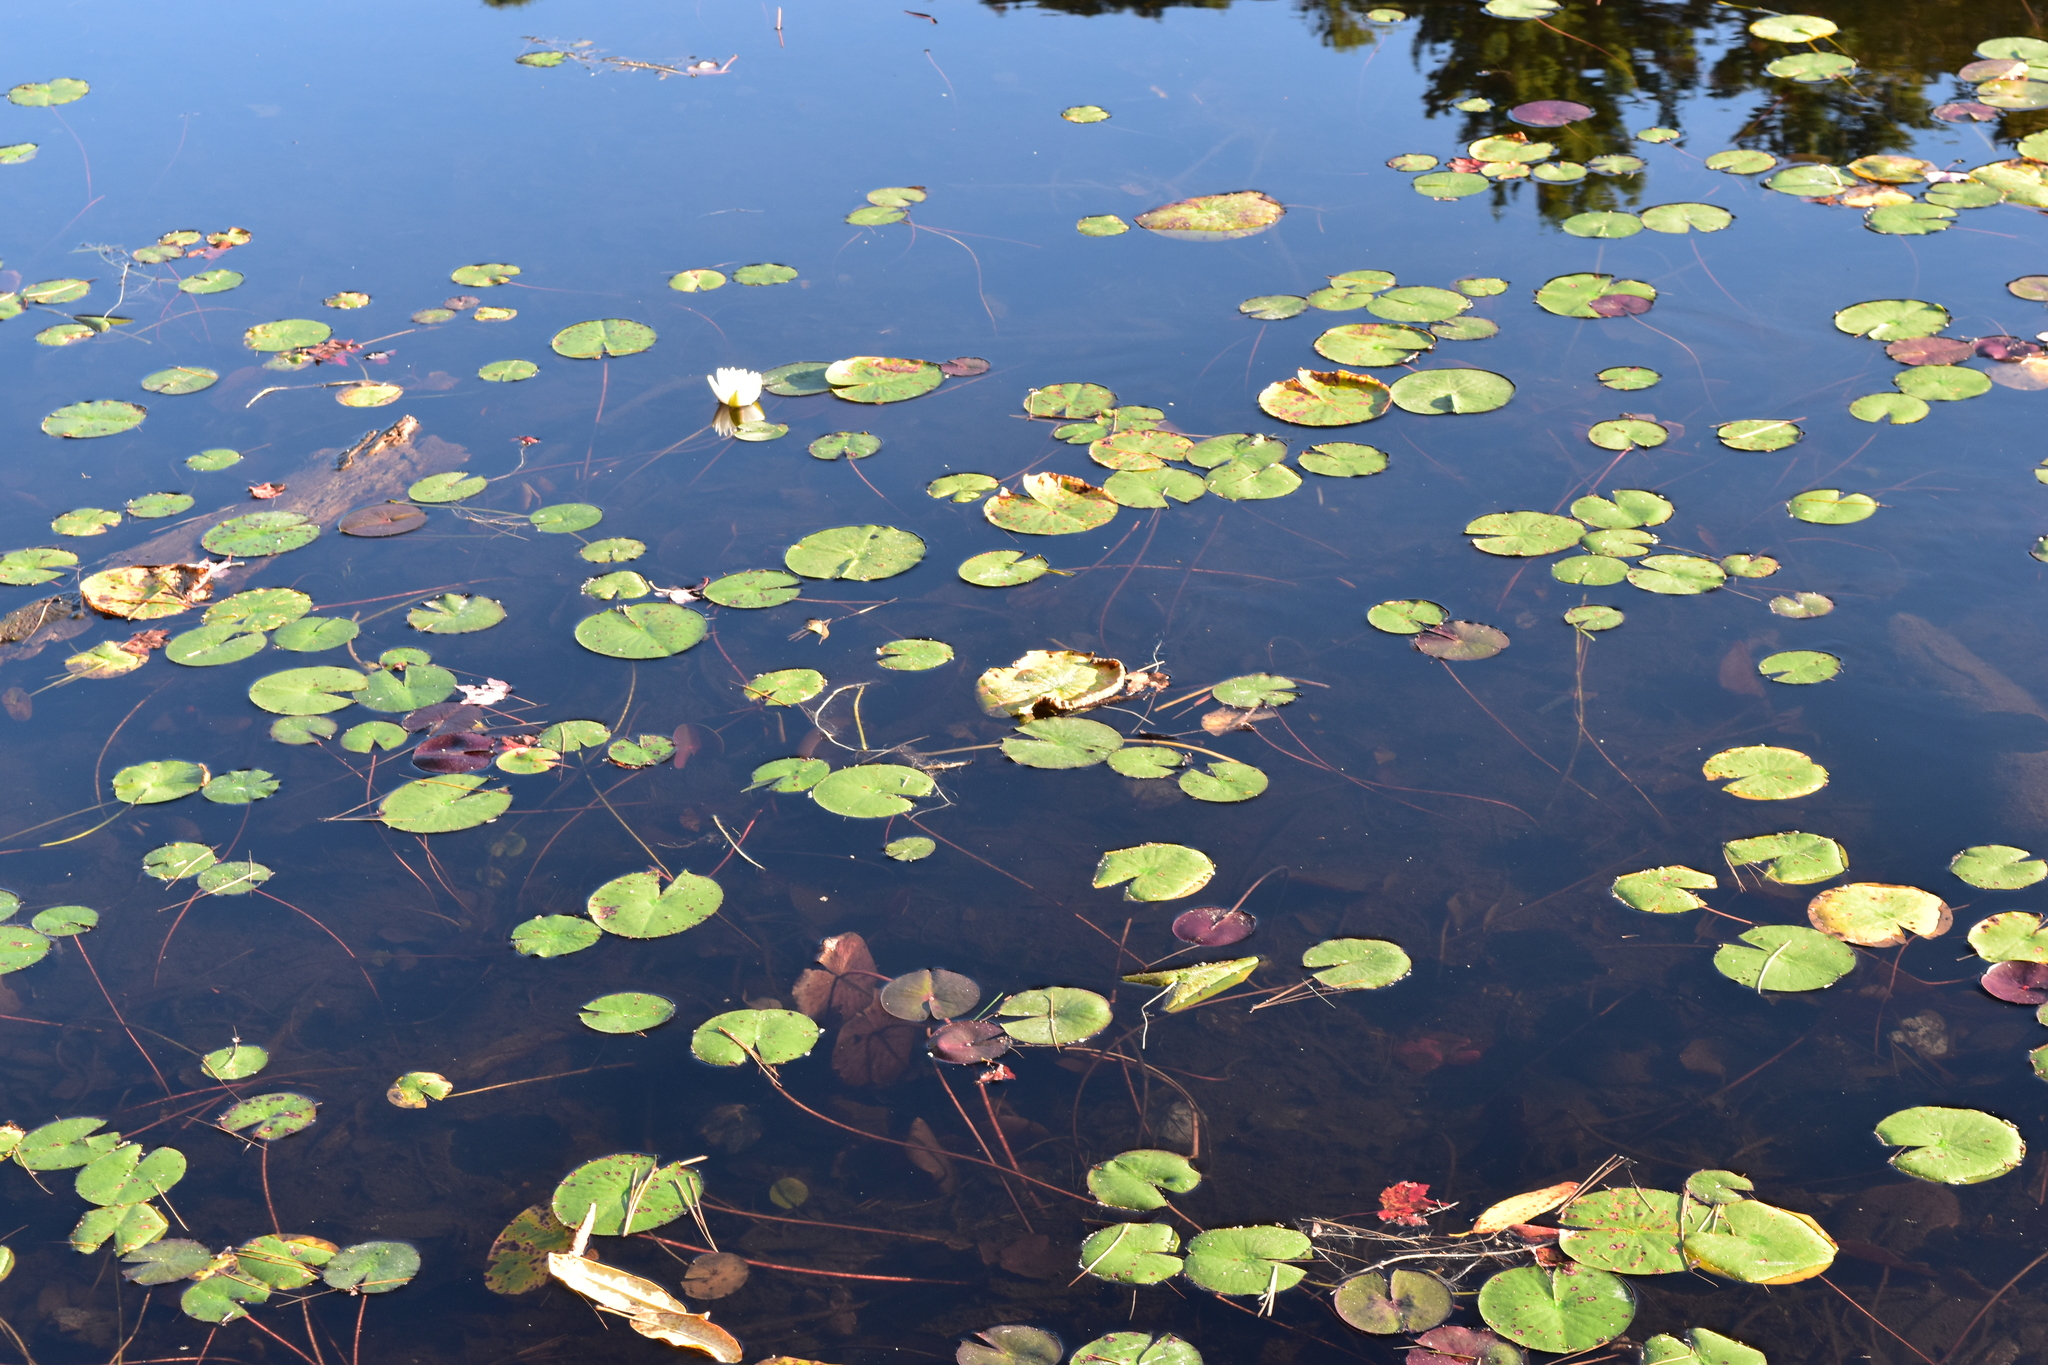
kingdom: Plantae
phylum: Tracheophyta
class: Magnoliopsida
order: Nymphaeales
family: Nymphaeaceae
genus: Nymphaea
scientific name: Nymphaea odorata
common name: Fragrant water-lily
